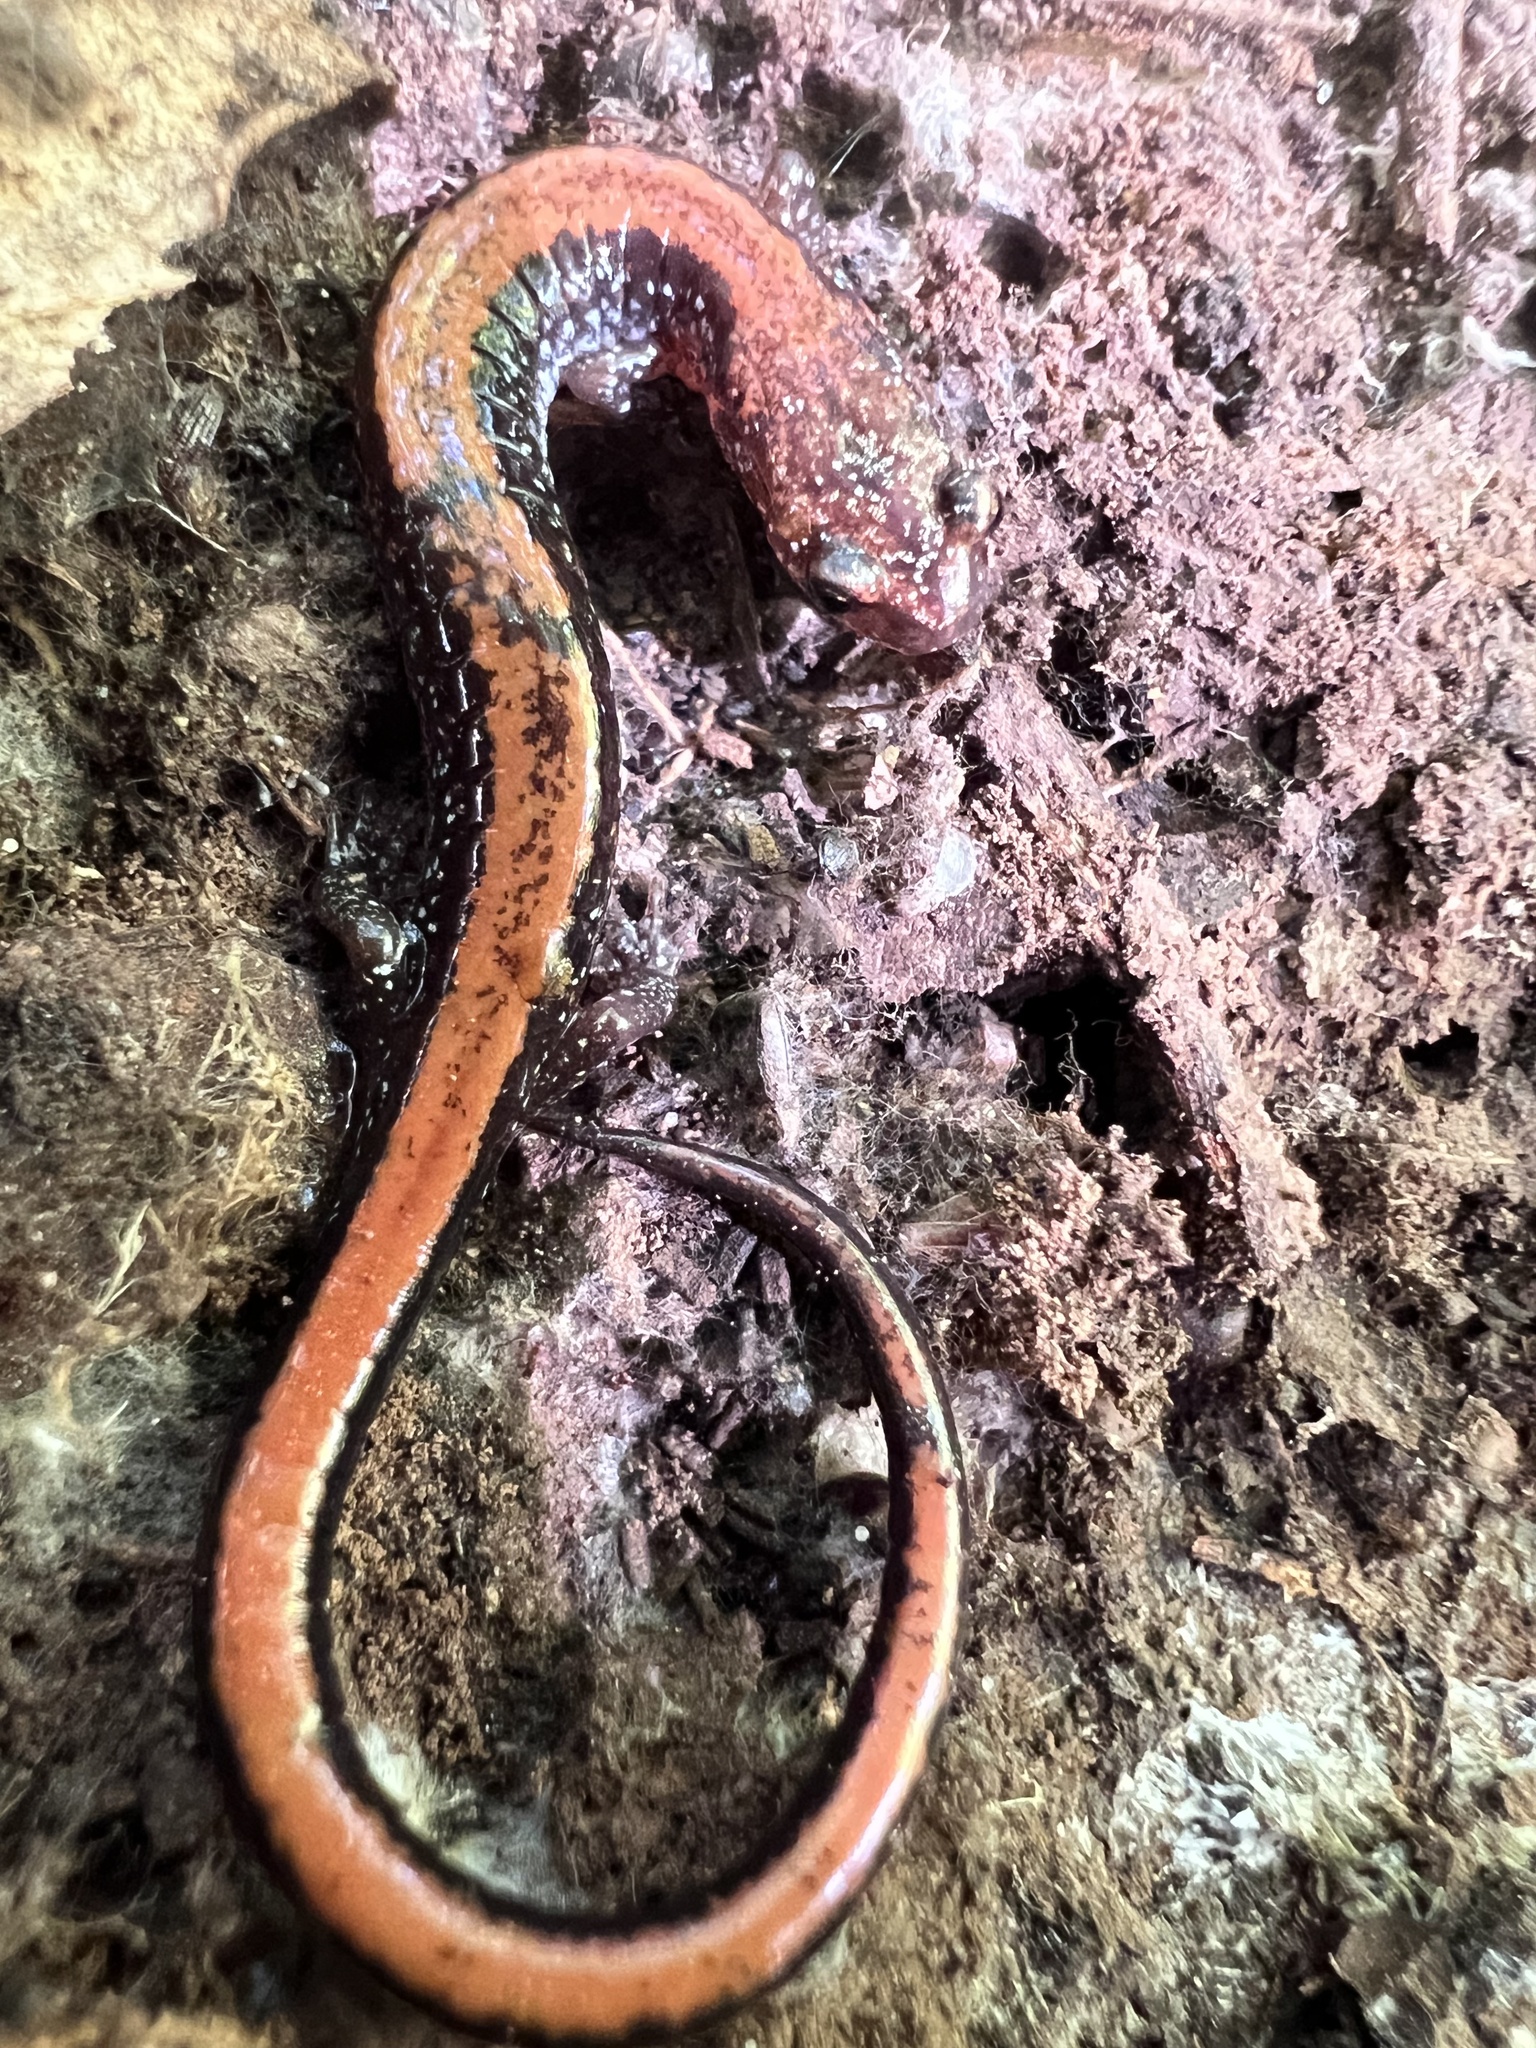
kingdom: Animalia
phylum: Chordata
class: Amphibia
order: Caudata
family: Plethodontidae
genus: Plethodon
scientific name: Plethodon cinereus
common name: Redback salamander
